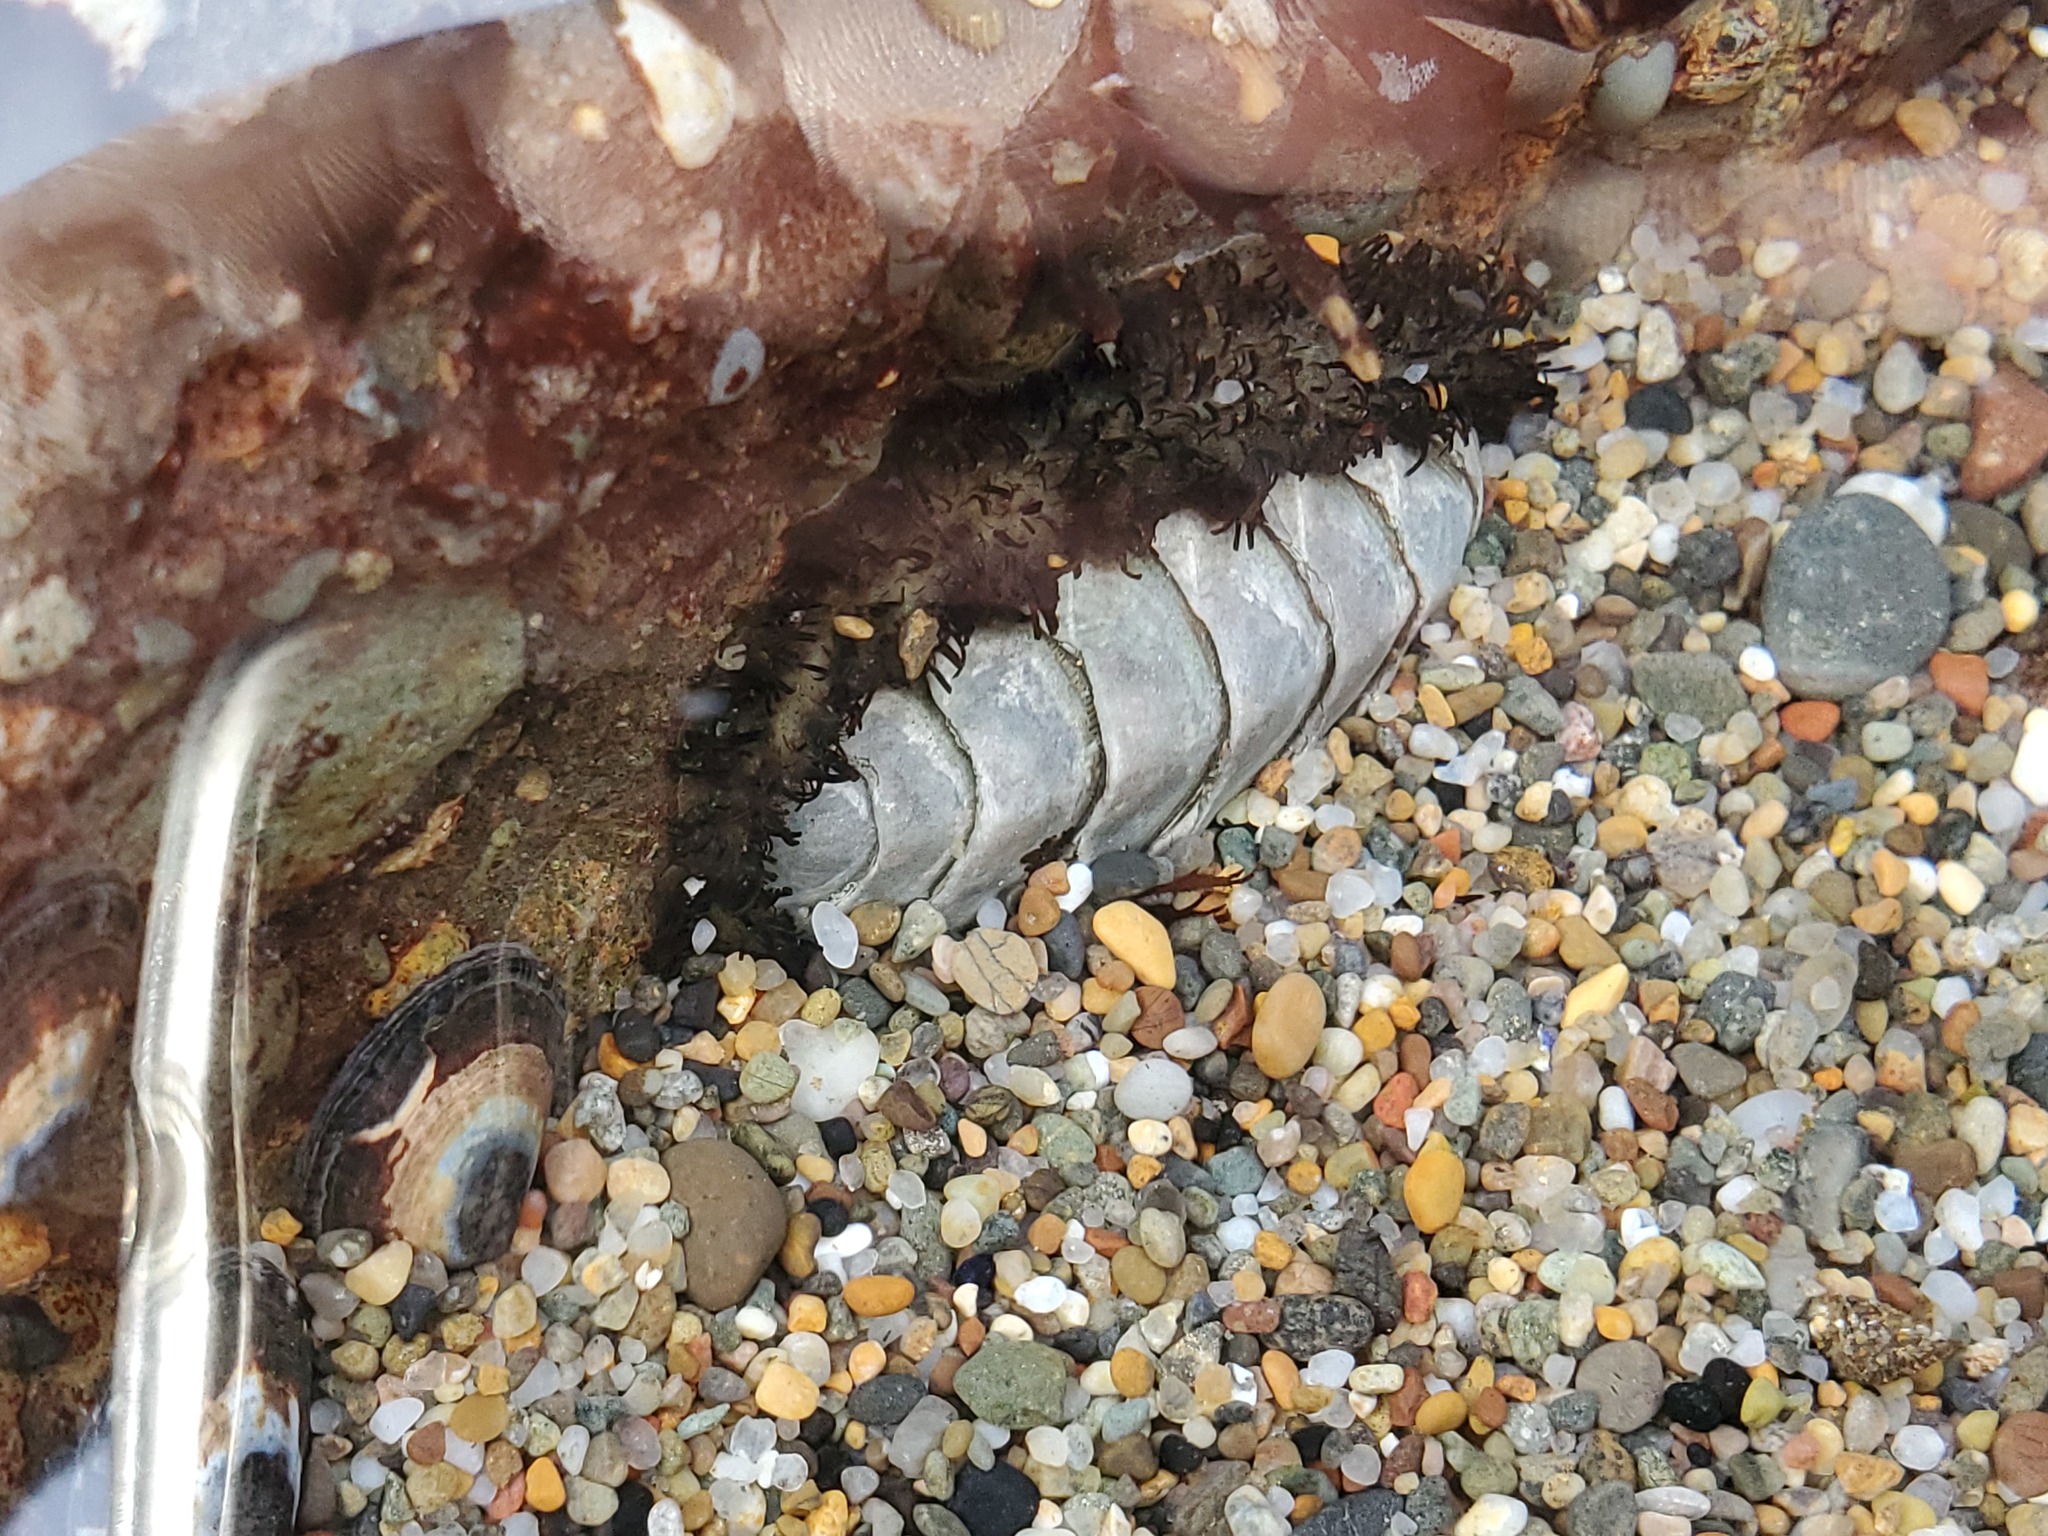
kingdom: Animalia
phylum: Mollusca
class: Polyplacophora
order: Chitonida
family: Mopaliidae
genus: Mopalia
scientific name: Mopalia muscosa
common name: Mossy chiton
